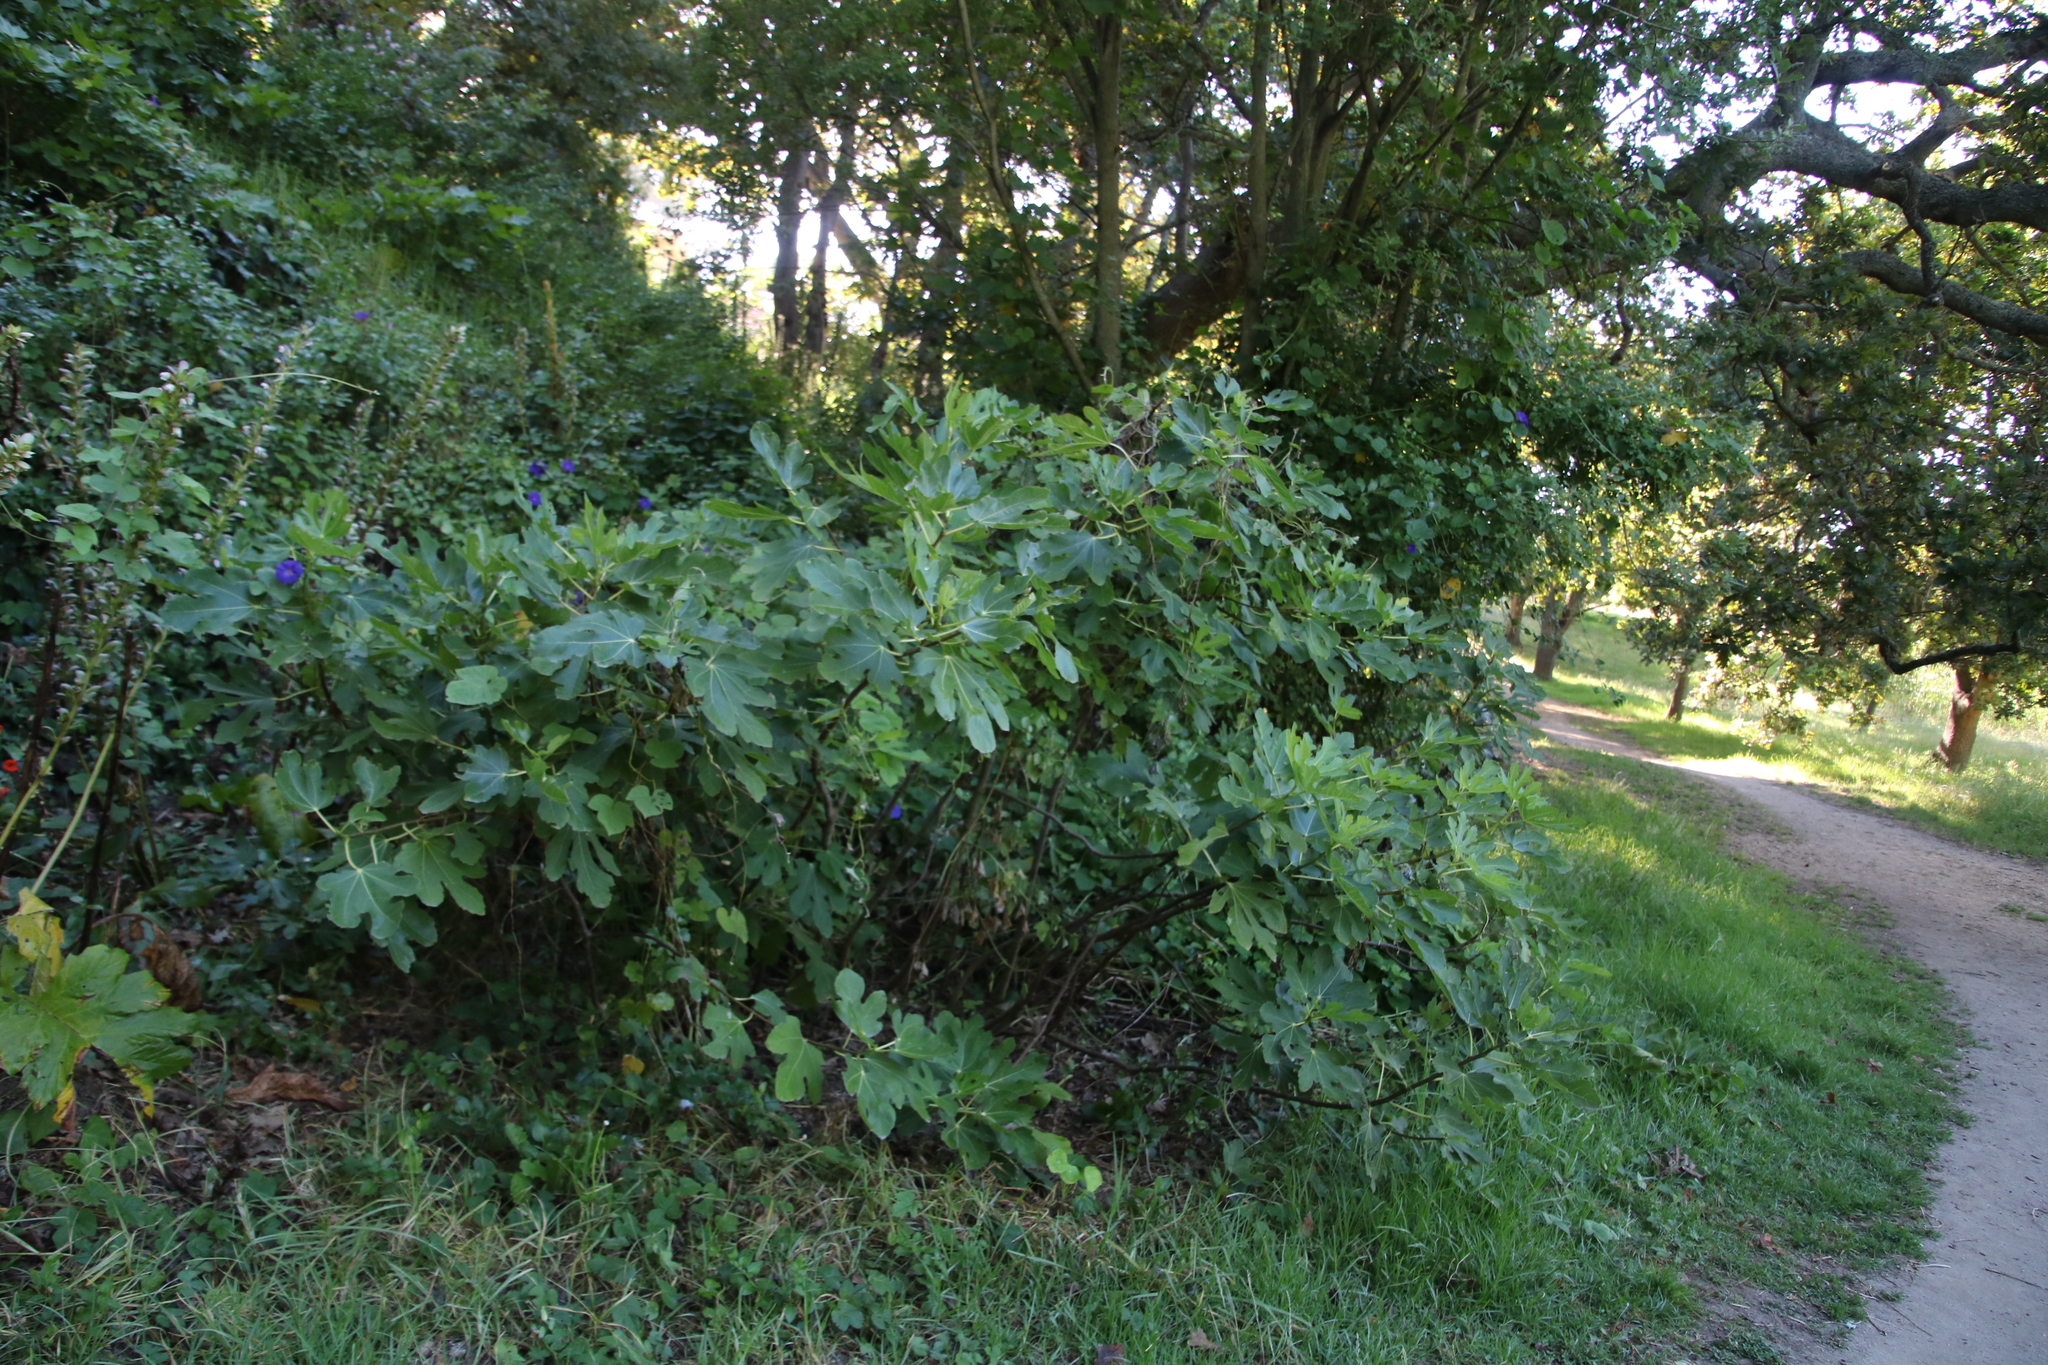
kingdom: Plantae
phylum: Tracheophyta
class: Magnoliopsida
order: Rosales
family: Moraceae
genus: Ficus
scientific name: Ficus carica
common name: Fig
